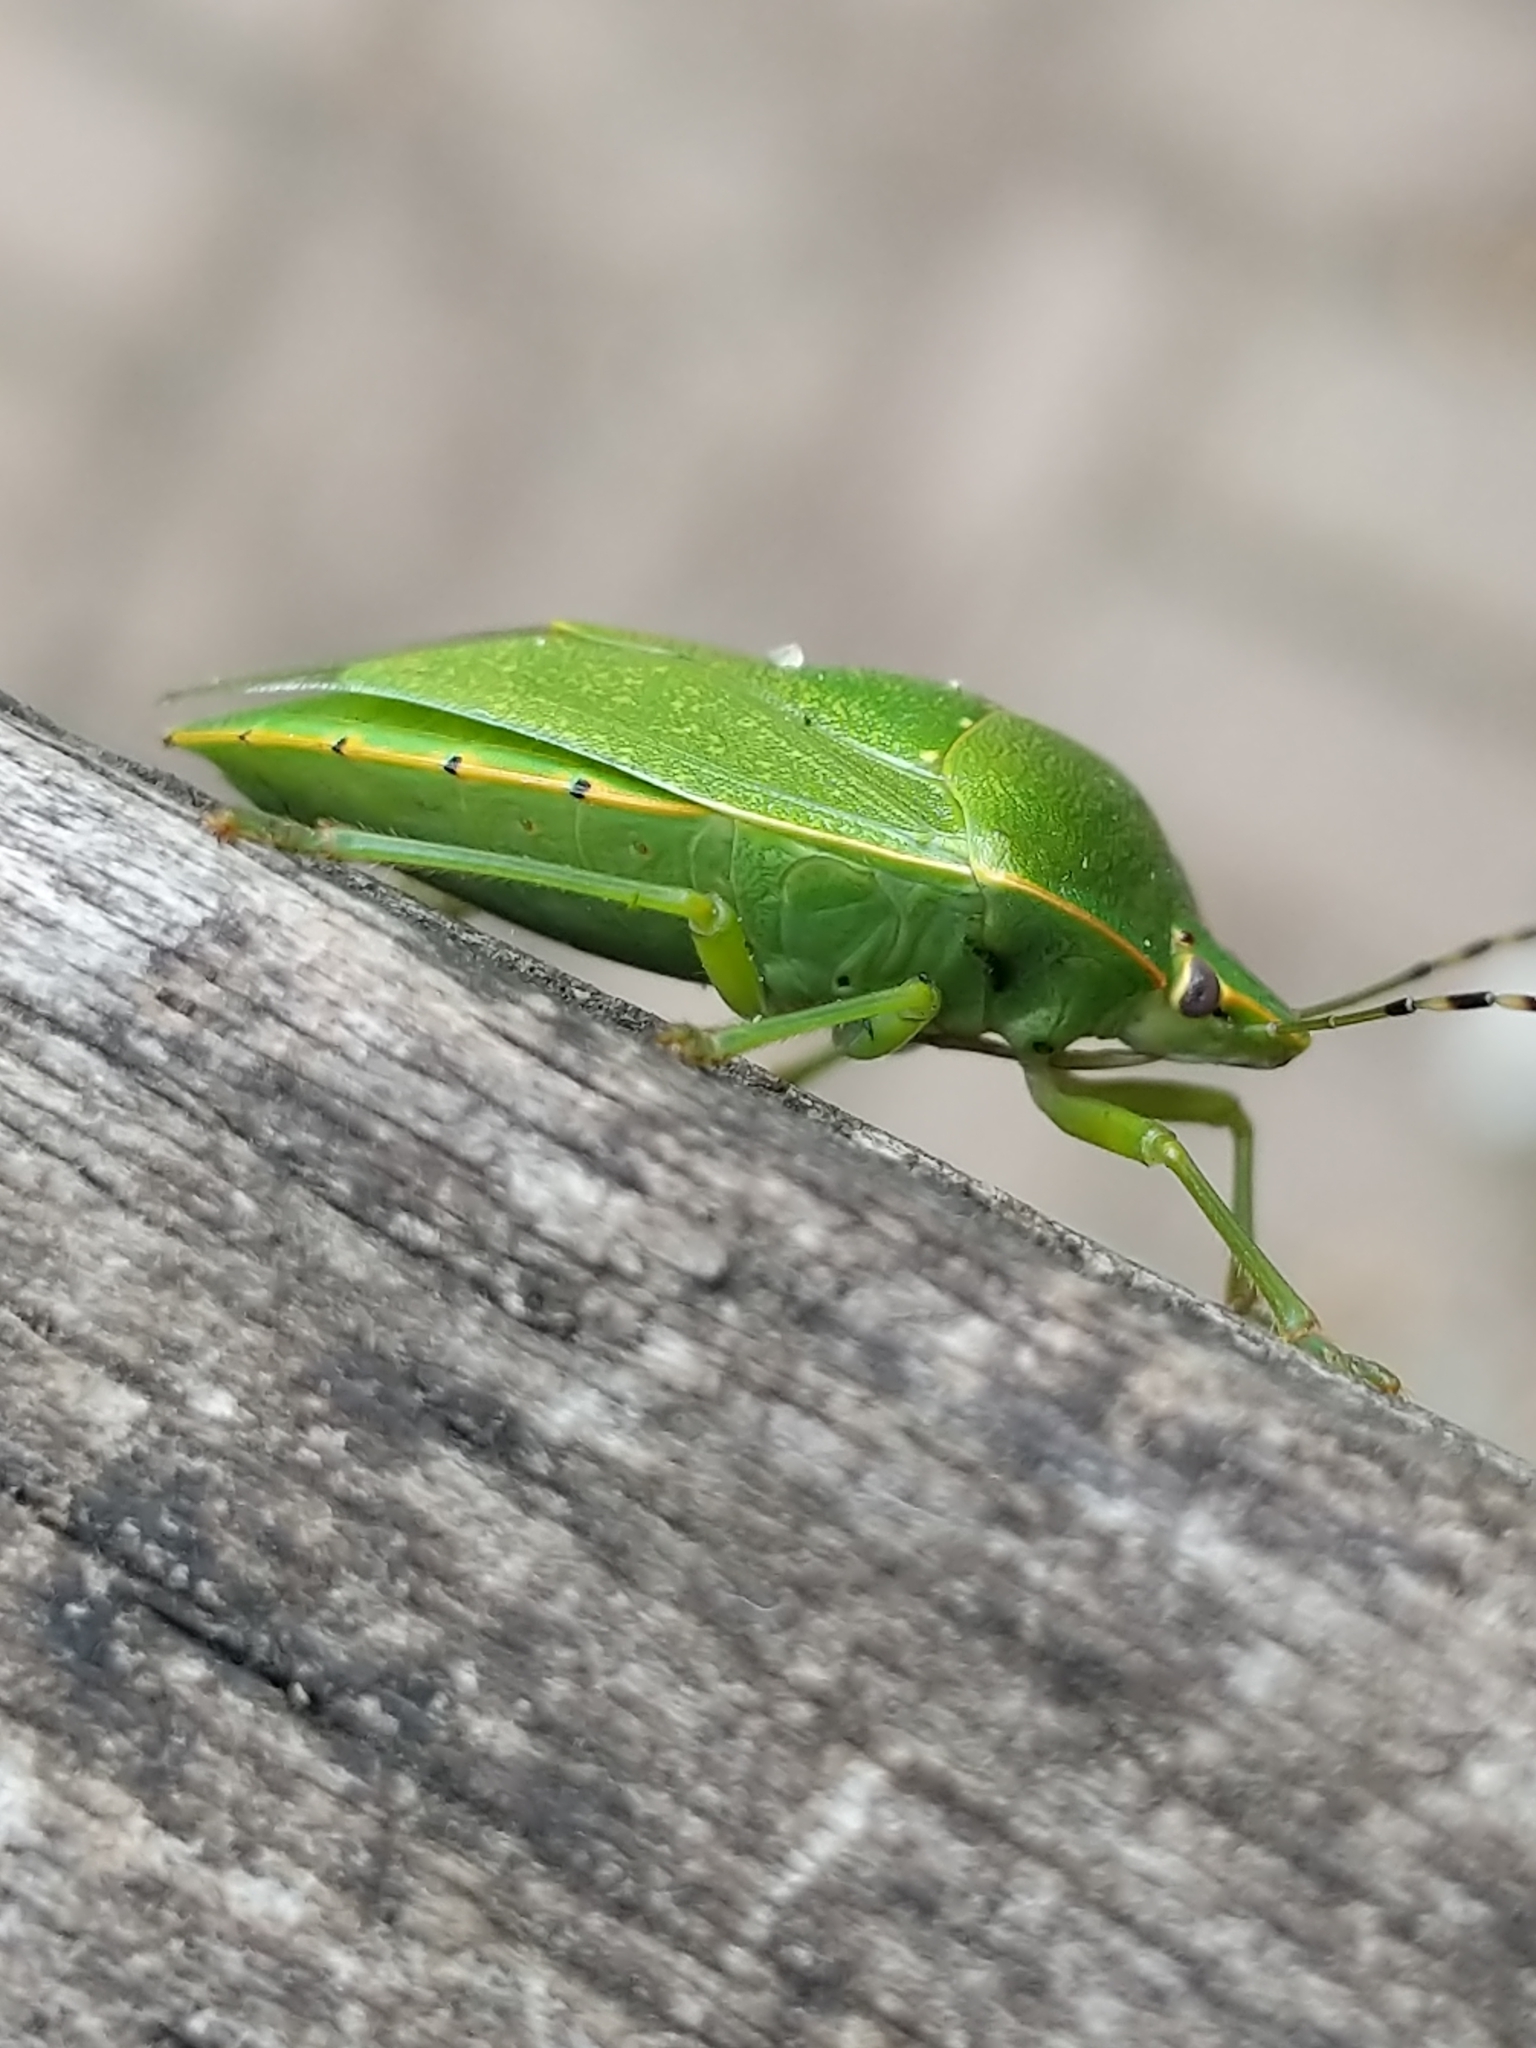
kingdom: Animalia
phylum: Arthropoda
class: Insecta
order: Hemiptera
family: Pentatomidae
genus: Chinavia
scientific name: Chinavia hilaris
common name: Green stink bug
